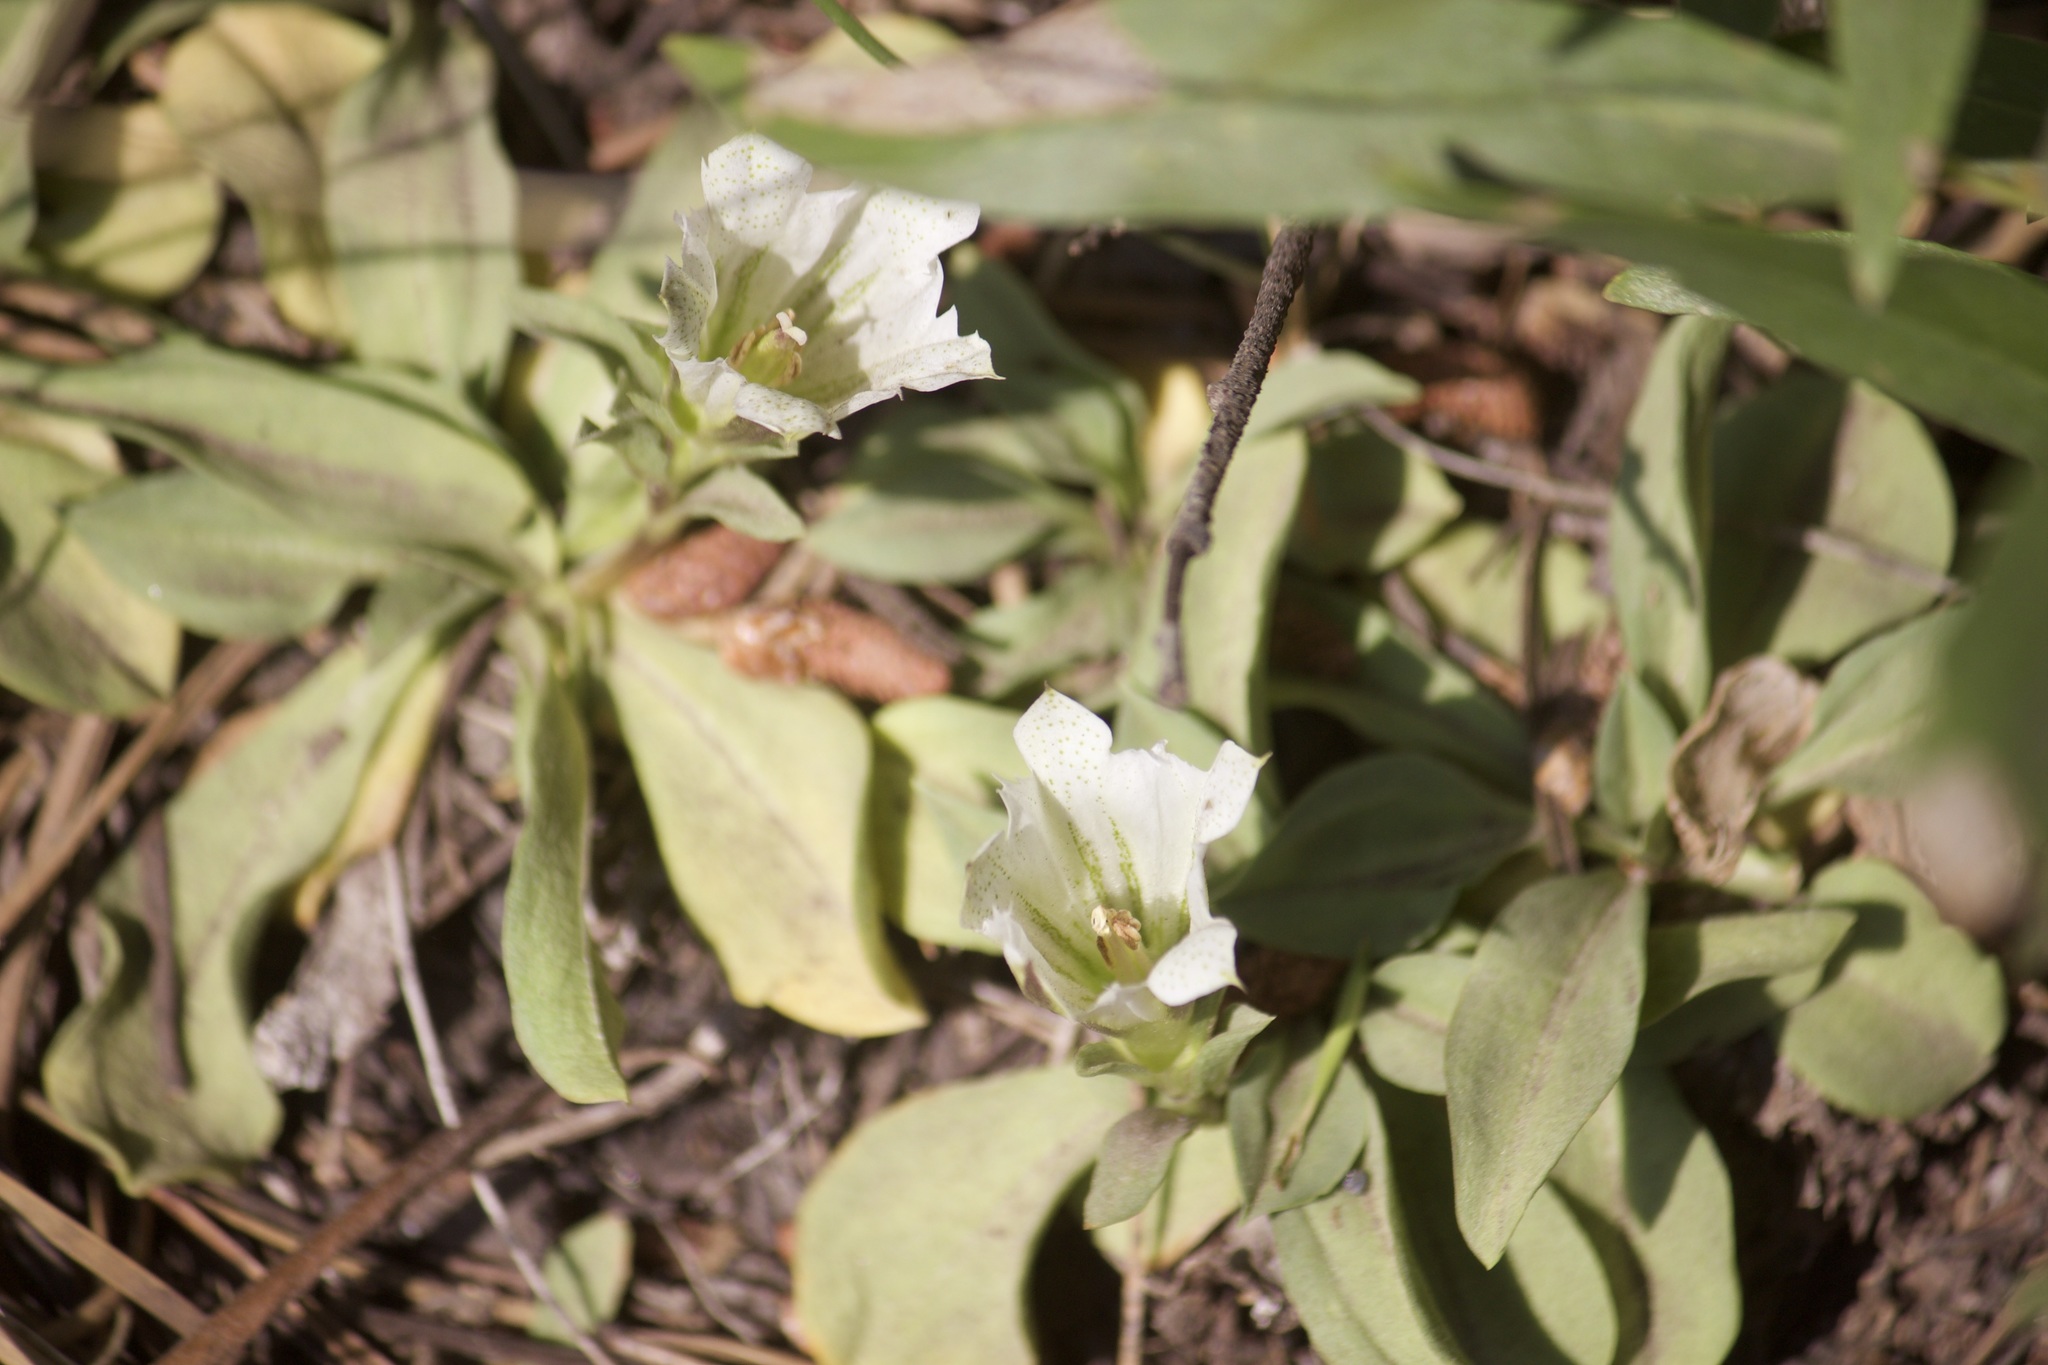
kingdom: Plantae
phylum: Tracheophyta
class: Magnoliopsida
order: Gentianales
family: Gentianaceae
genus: Gentiana
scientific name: Gentiana newberryi
